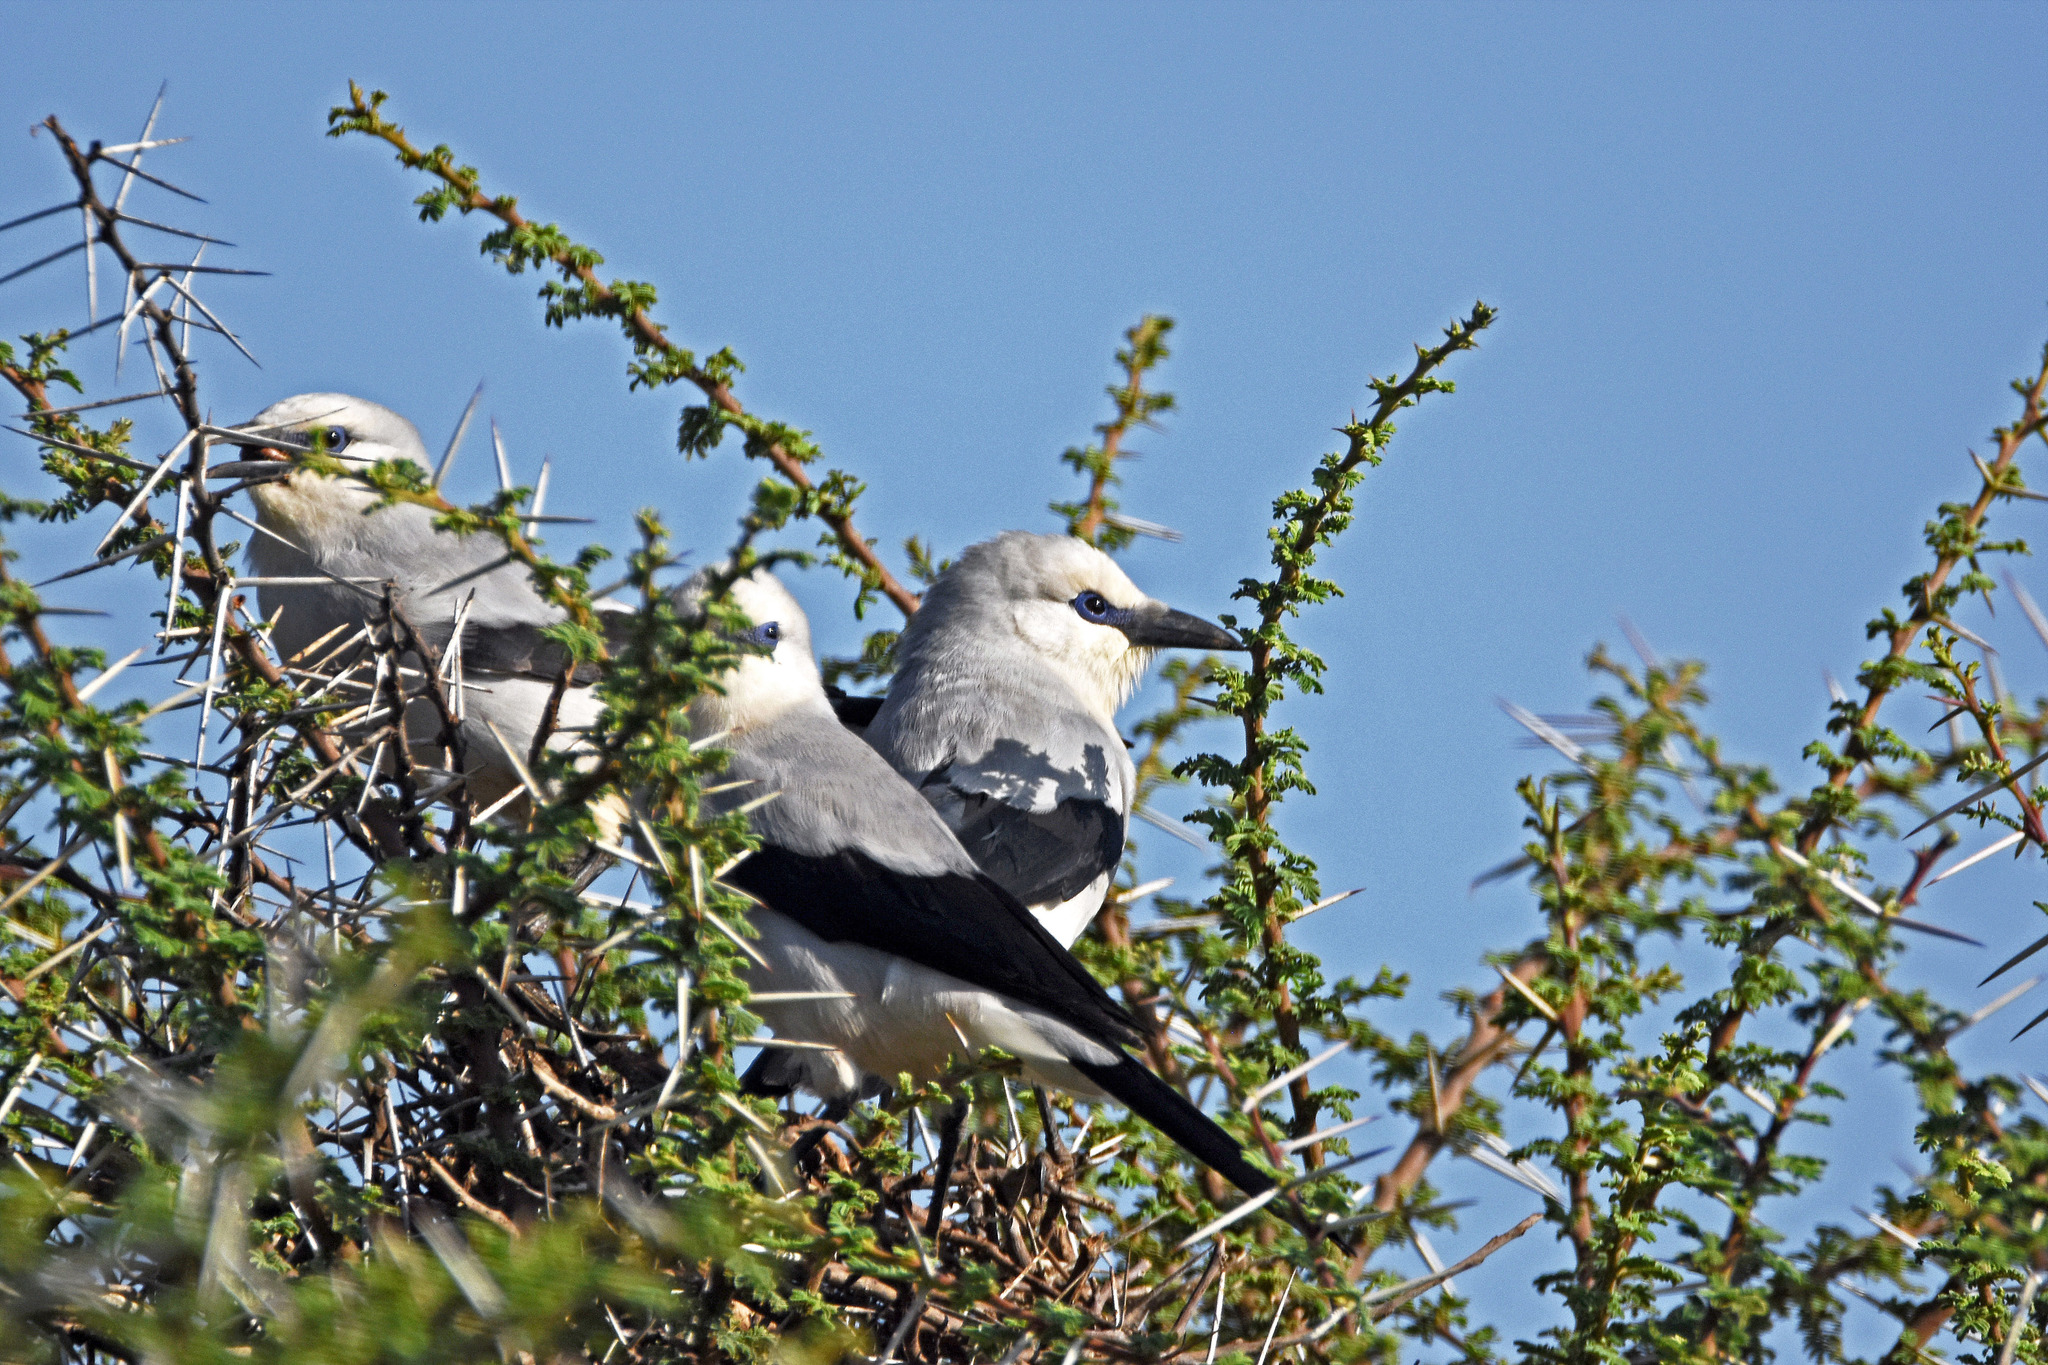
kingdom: Animalia
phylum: Chordata
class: Aves
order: Passeriformes
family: Corvidae
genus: Zavattariornis
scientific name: Zavattariornis stresemanni
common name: Stresemann's bush crow
